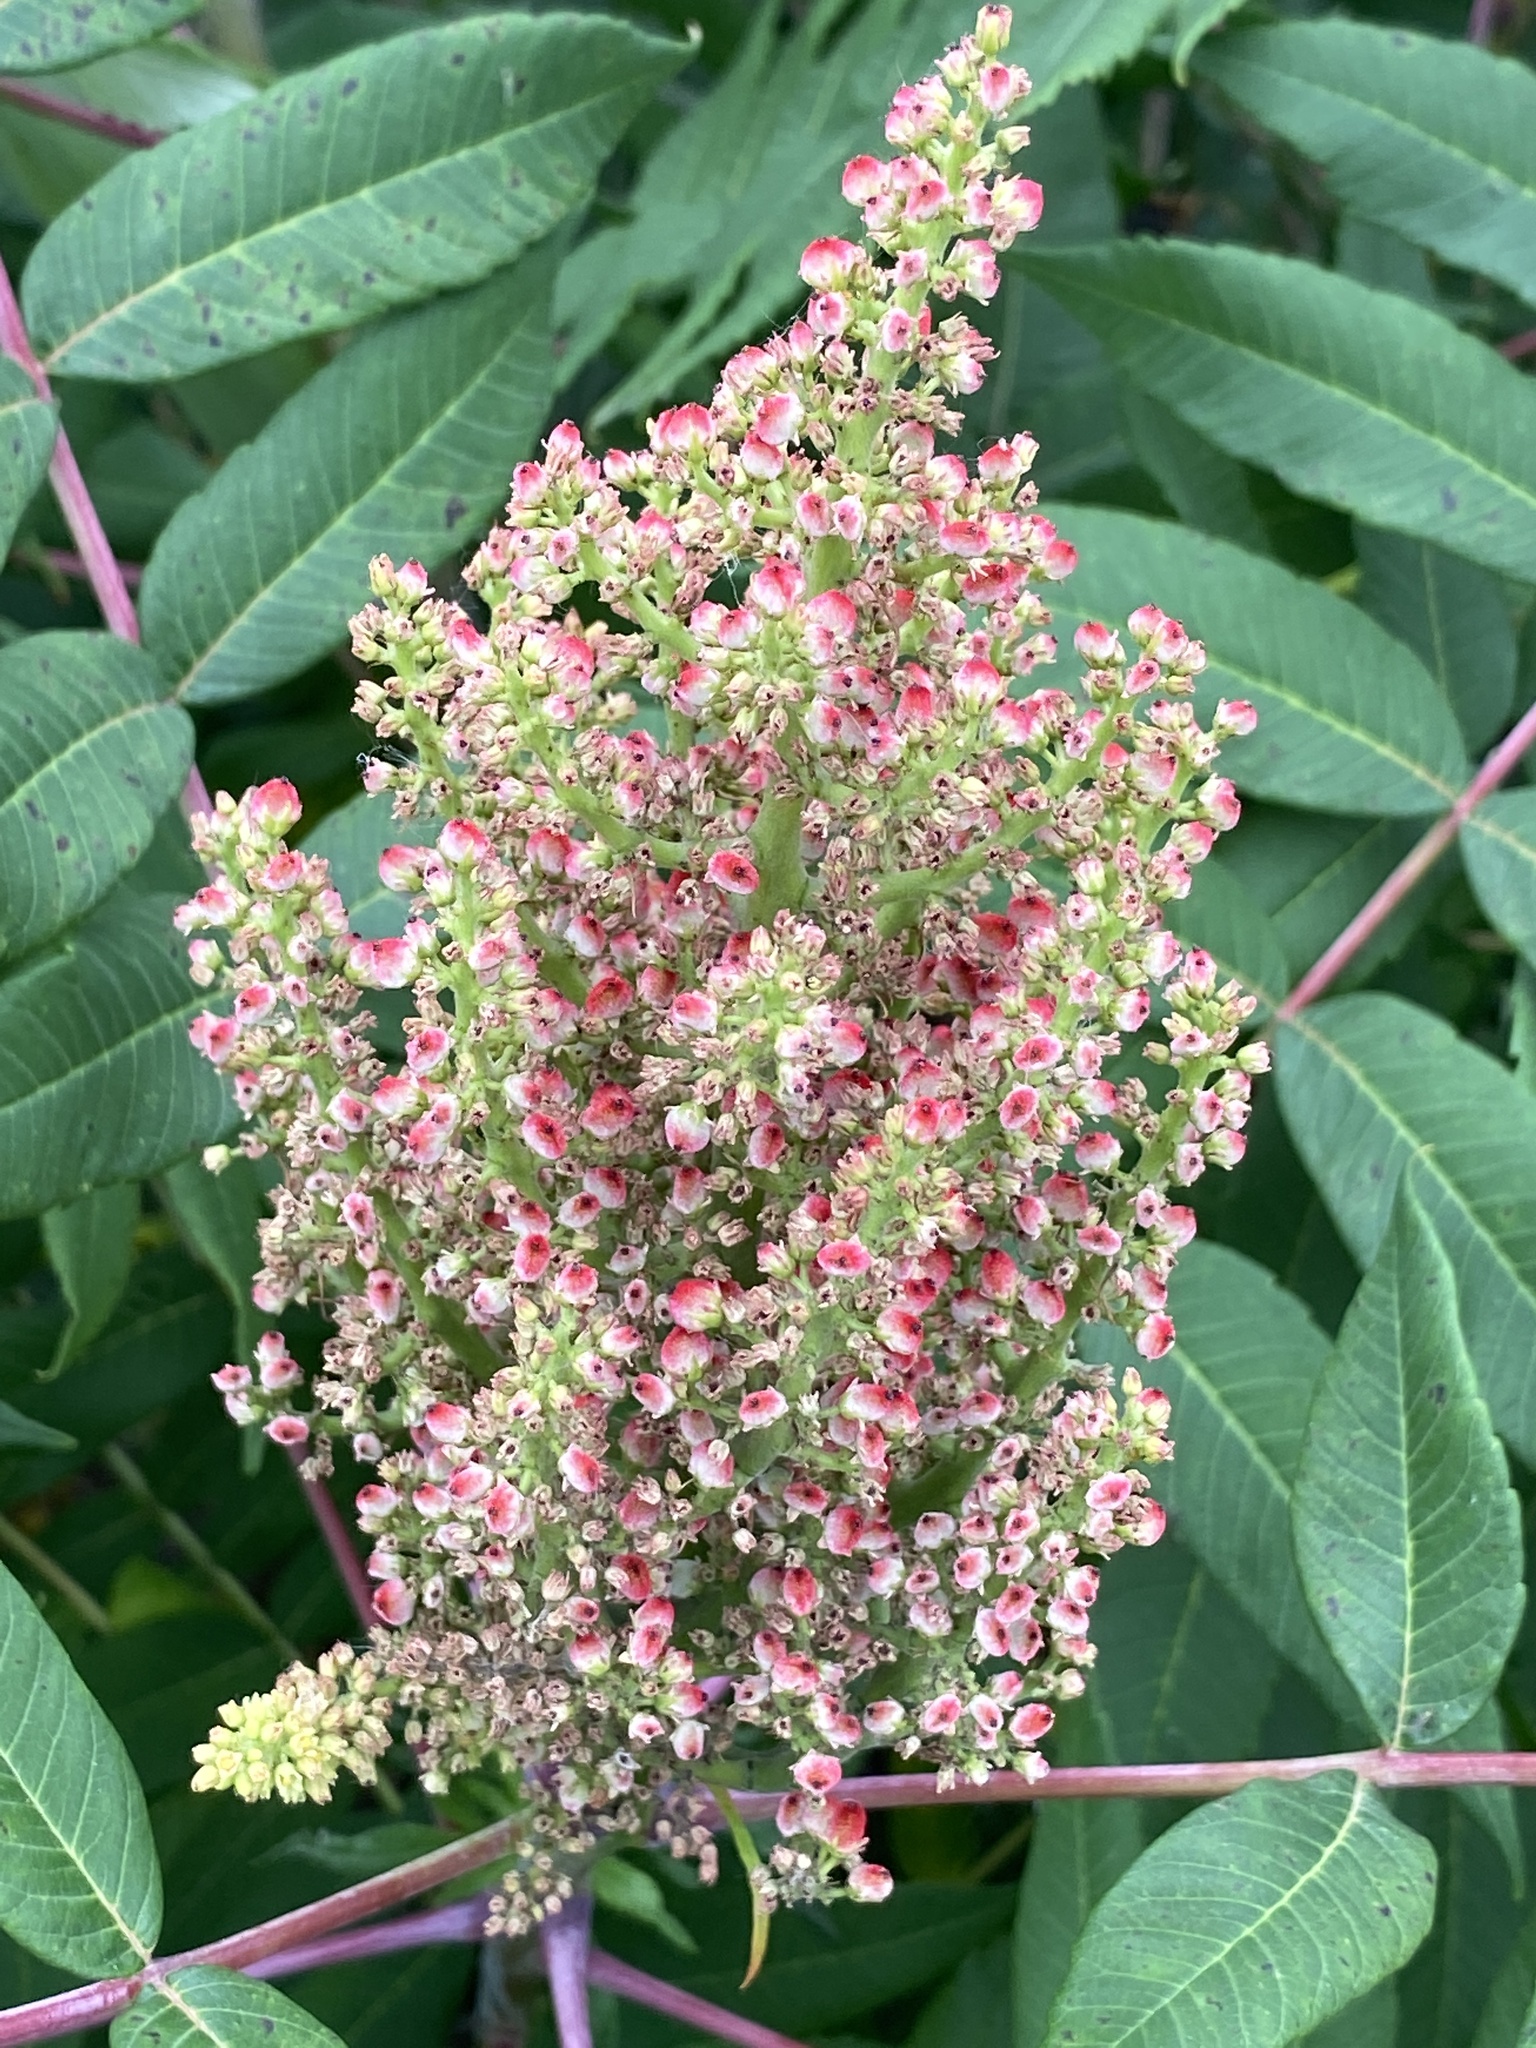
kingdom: Plantae
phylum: Tracheophyta
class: Magnoliopsida
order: Sapindales
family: Anacardiaceae
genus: Rhus
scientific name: Rhus glabra
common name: Scarlet sumac
